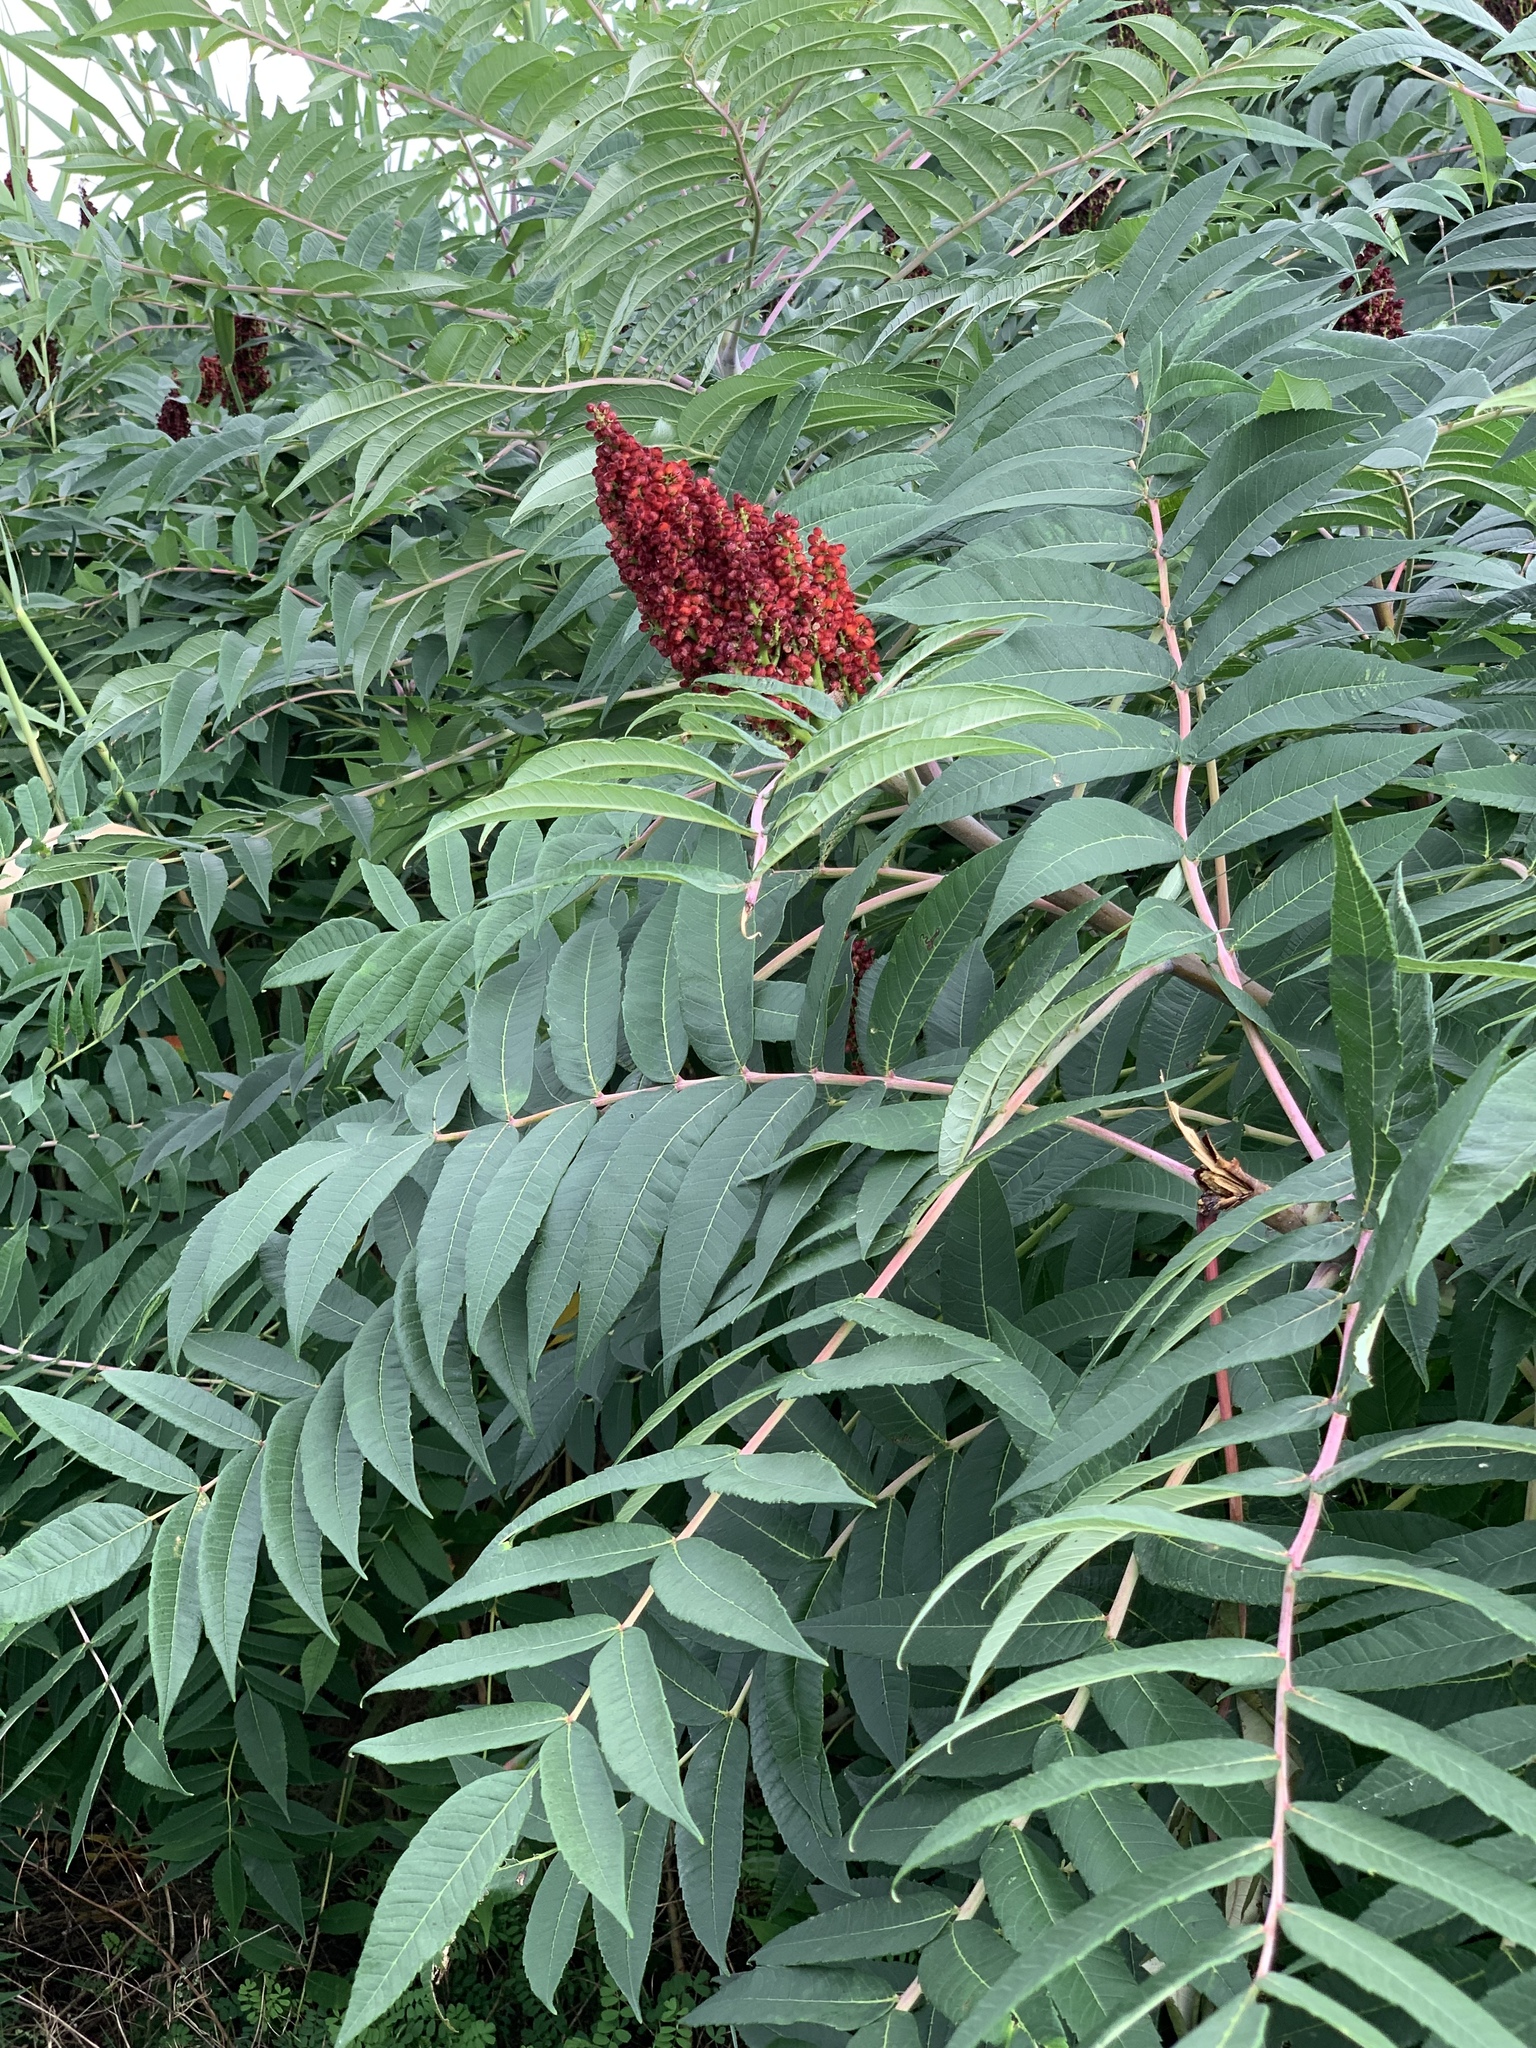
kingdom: Plantae
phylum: Tracheophyta
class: Magnoliopsida
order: Sapindales
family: Anacardiaceae
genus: Rhus
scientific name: Rhus glabra
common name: Scarlet sumac
